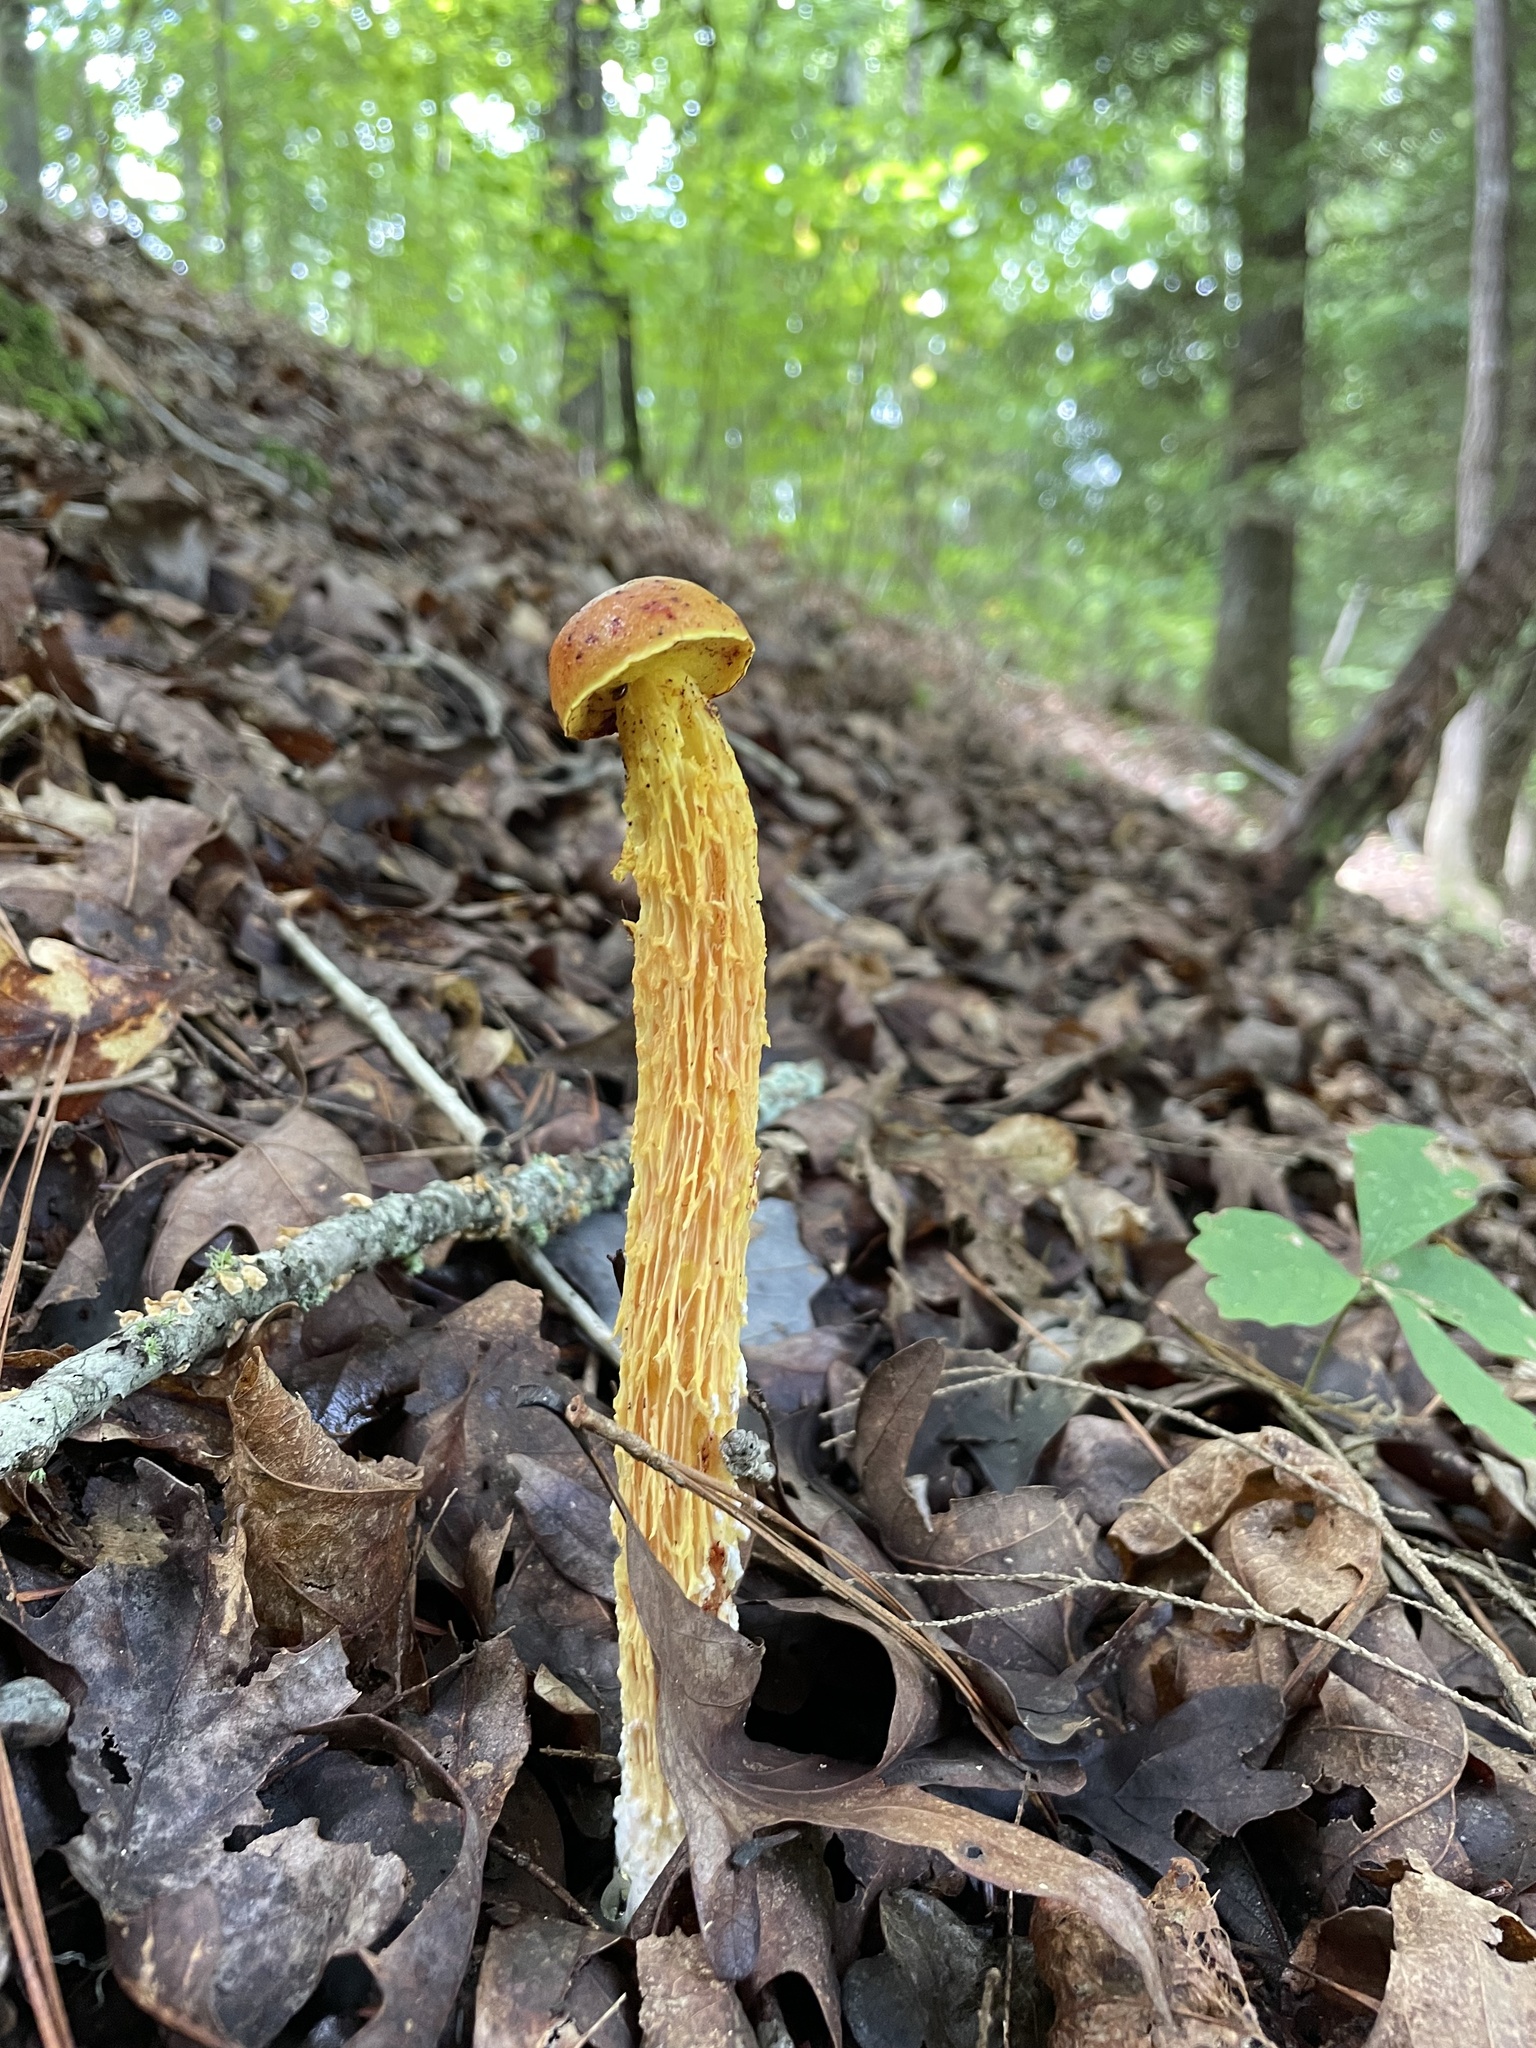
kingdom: Fungi
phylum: Basidiomycota
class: Agaricomycetes
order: Boletales
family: Boletaceae
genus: Aureoboletus
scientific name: Aureoboletus betula
